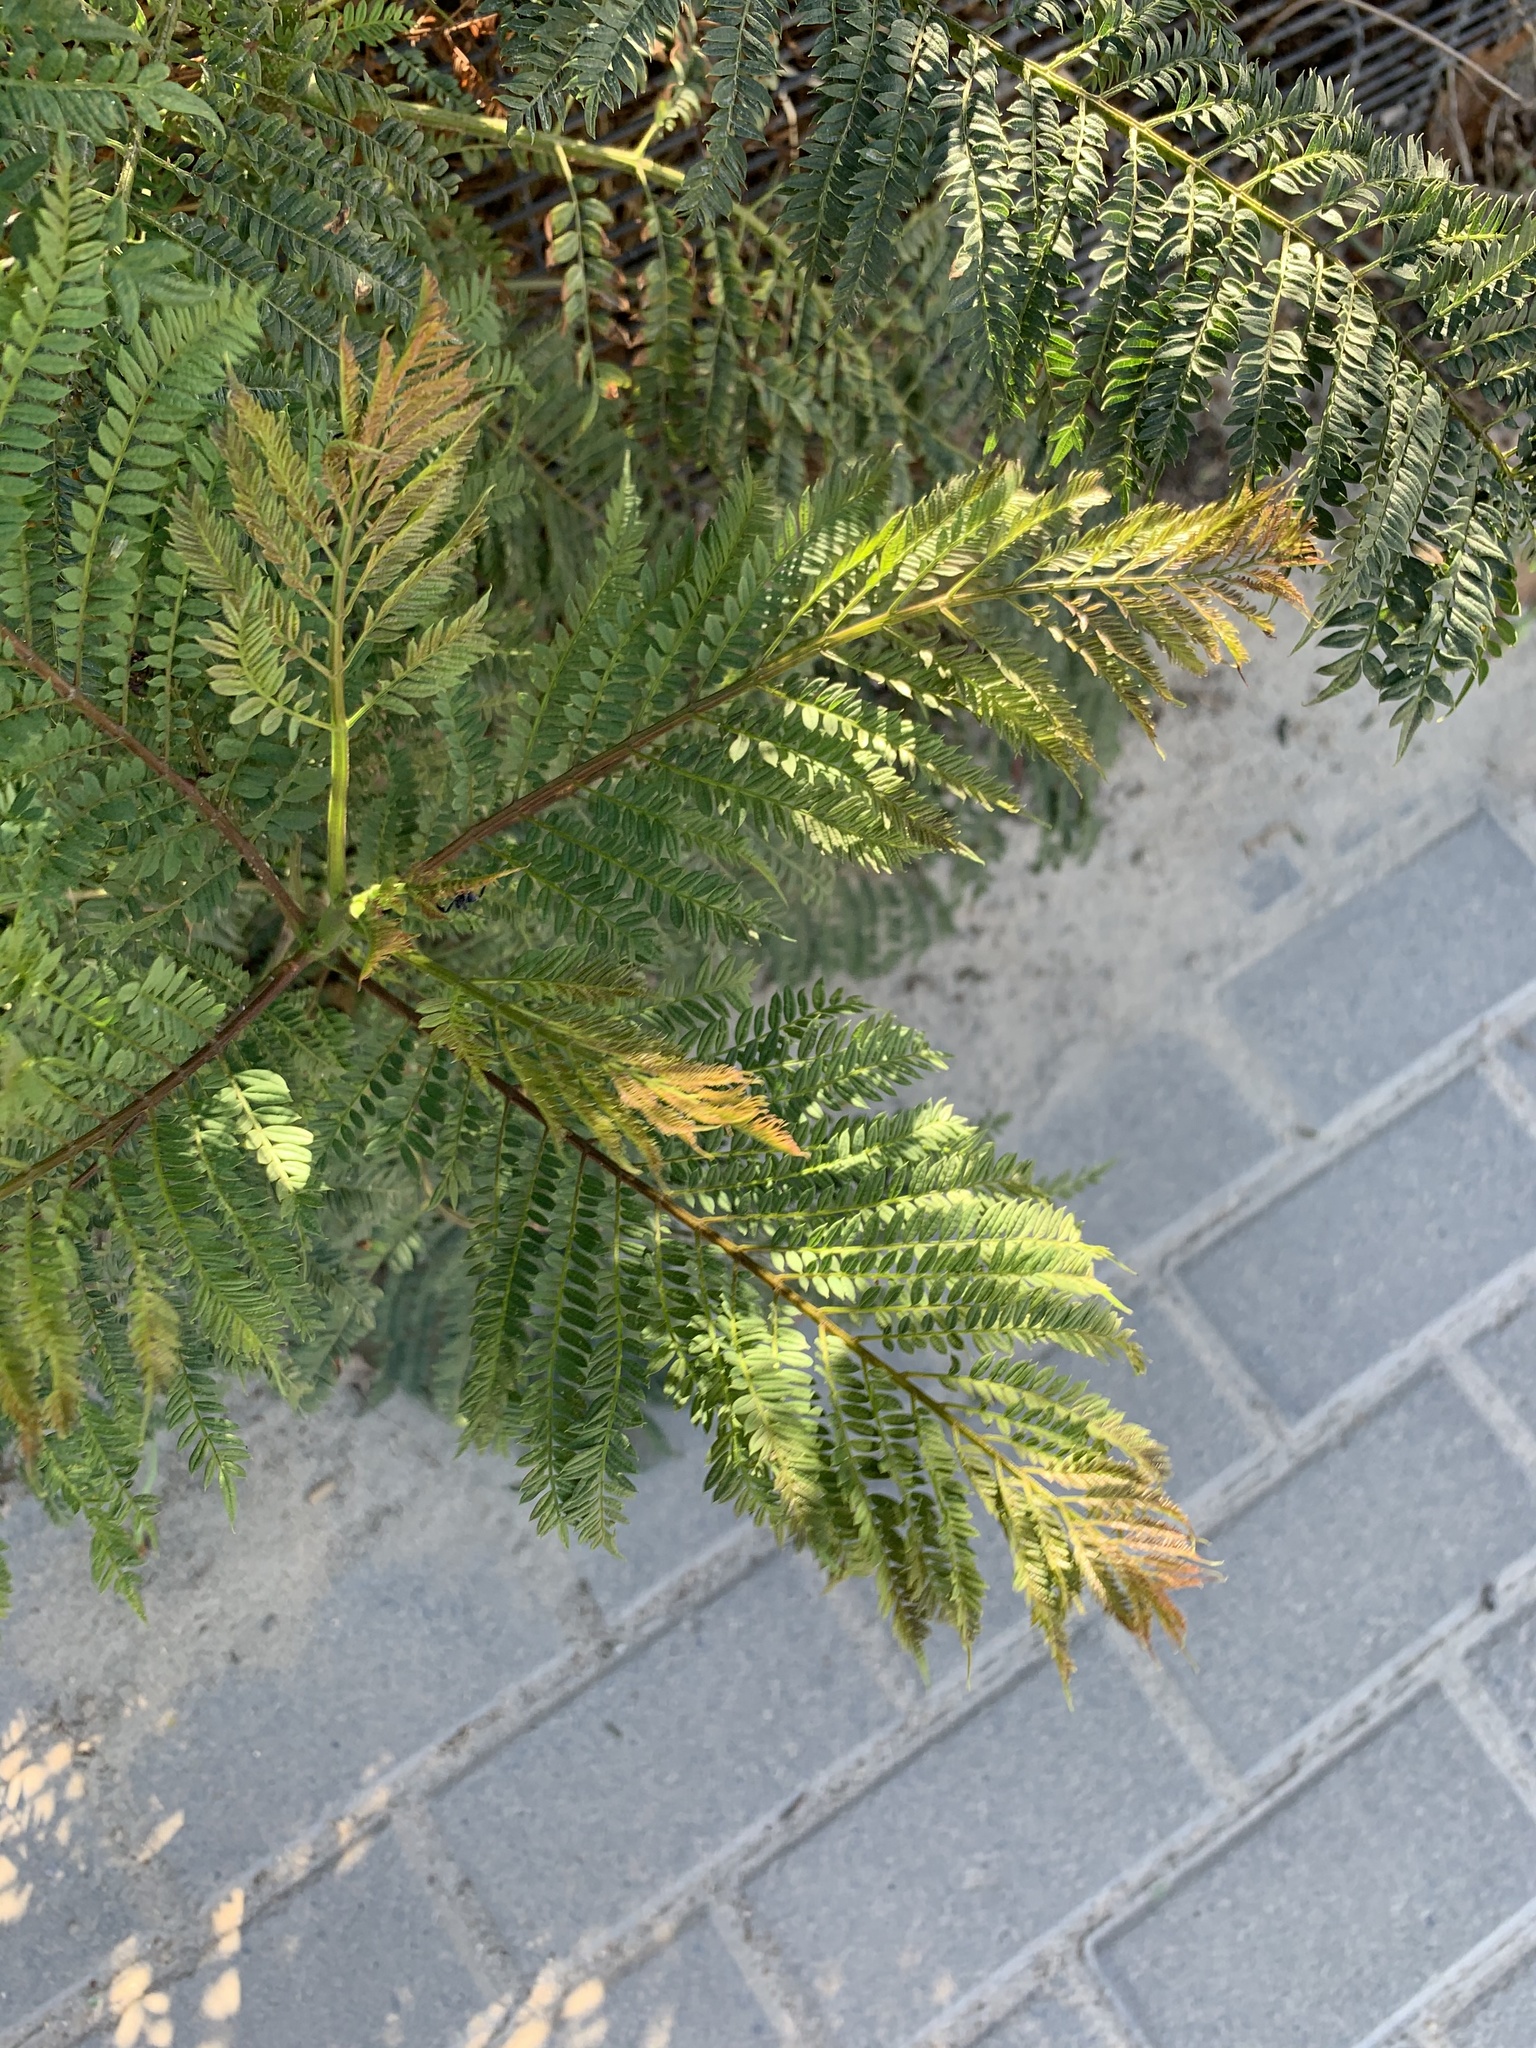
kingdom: Plantae
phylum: Tracheophyta
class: Magnoliopsida
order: Lamiales
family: Bignoniaceae
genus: Jacaranda
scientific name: Jacaranda mimosifolia
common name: Black poui
